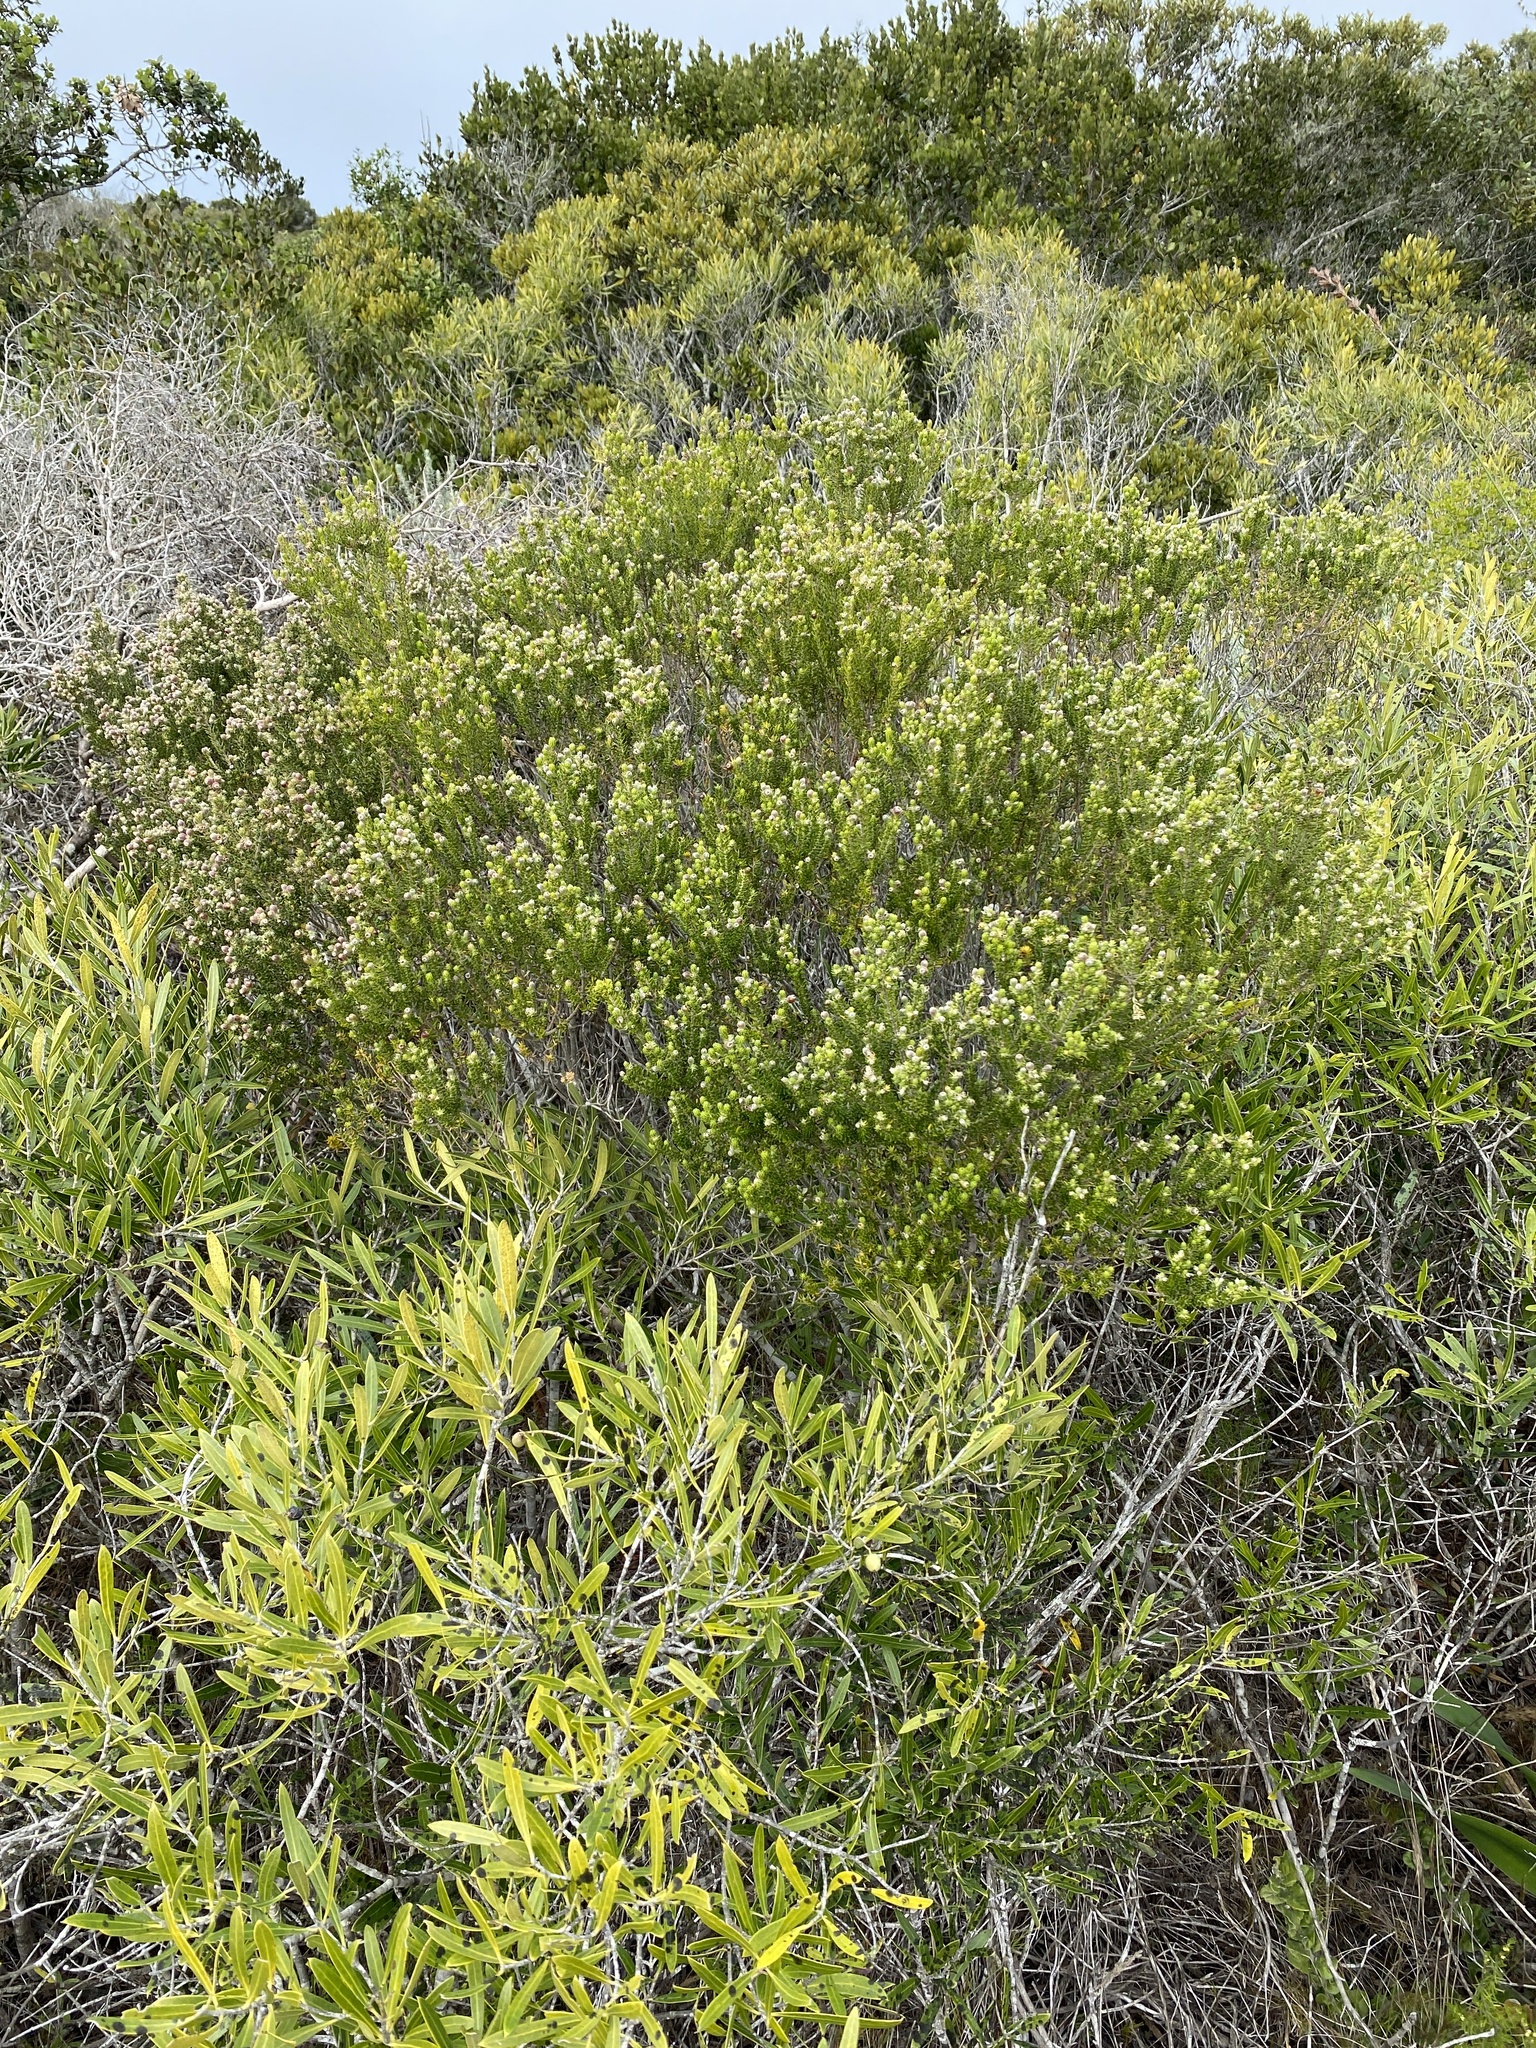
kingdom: Plantae
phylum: Tracheophyta
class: Magnoliopsida
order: Rosales
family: Rhamnaceae
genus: Phylica
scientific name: Phylica axillaris
